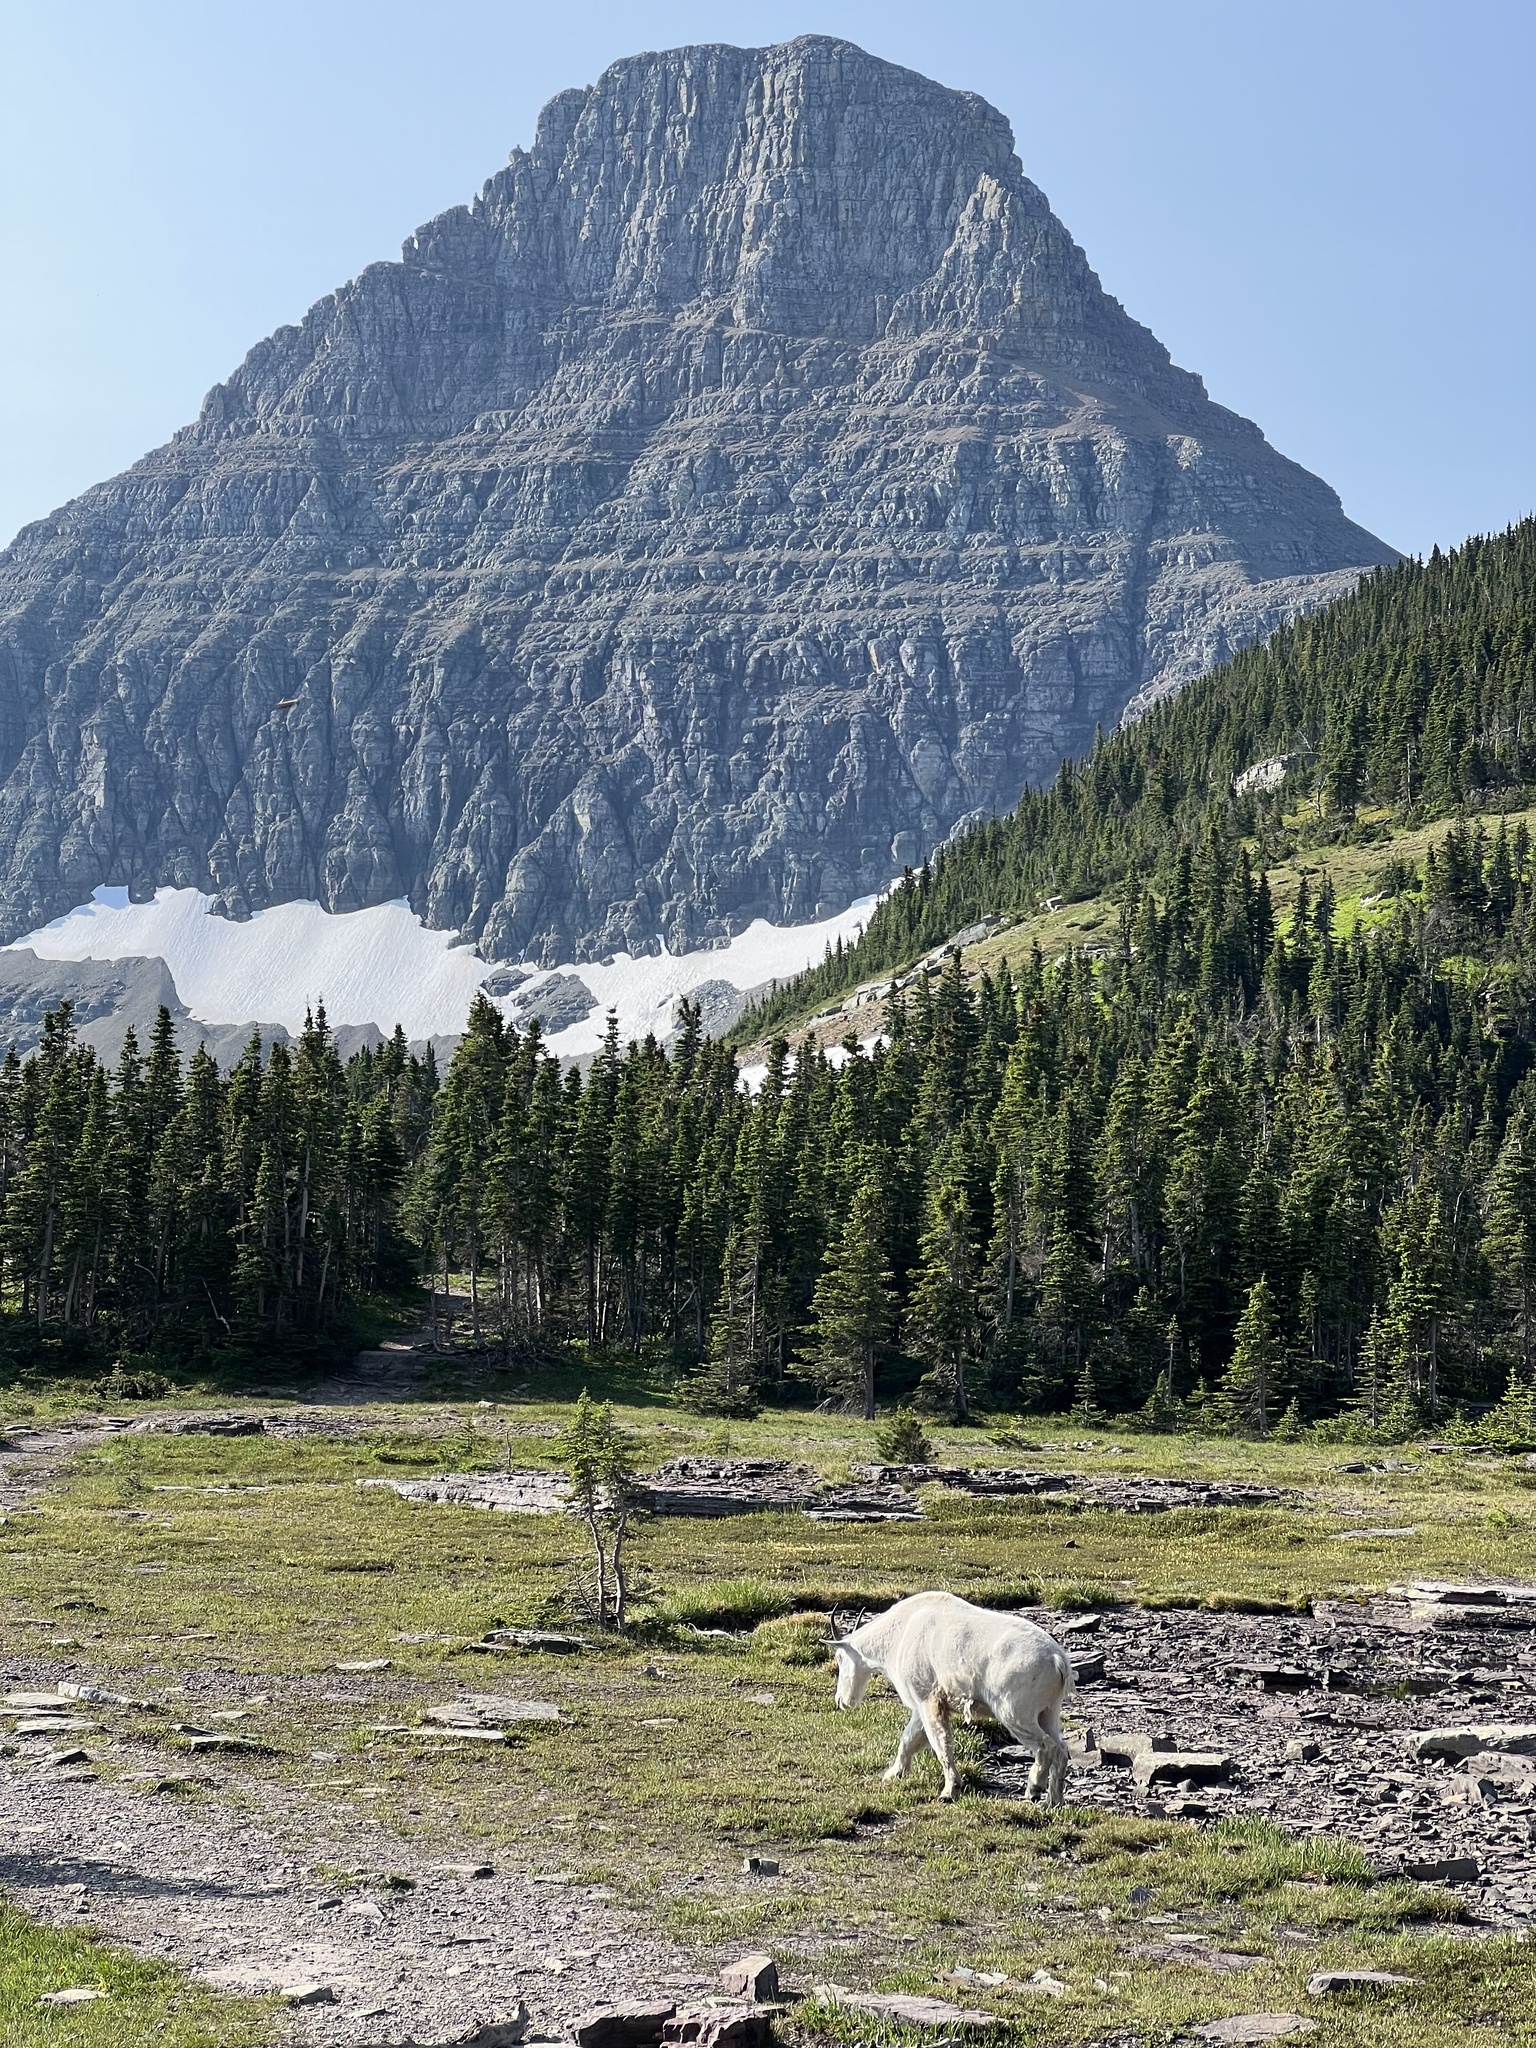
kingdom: Animalia
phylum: Chordata
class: Mammalia
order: Artiodactyla
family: Bovidae
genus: Oreamnos
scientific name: Oreamnos americanus
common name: Mountain goat
